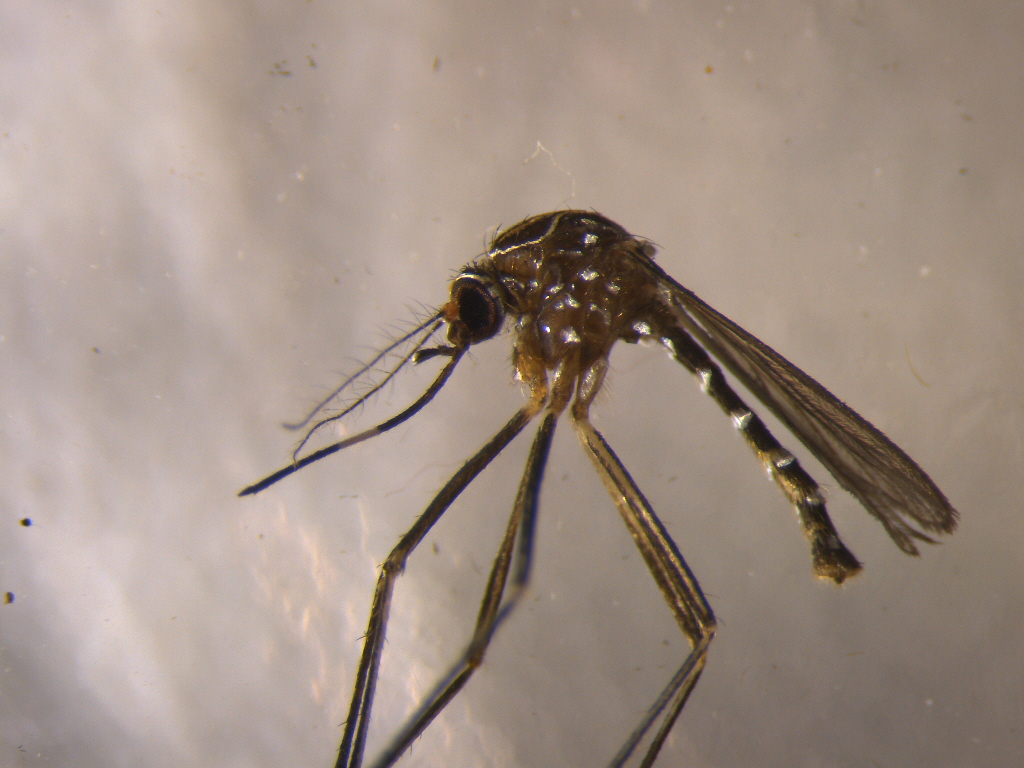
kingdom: Animalia
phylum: Arthropoda
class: Insecta
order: Diptera
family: Culicidae
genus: Aedes
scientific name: Aedes notoscriptus
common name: Australian backyard mosquito
